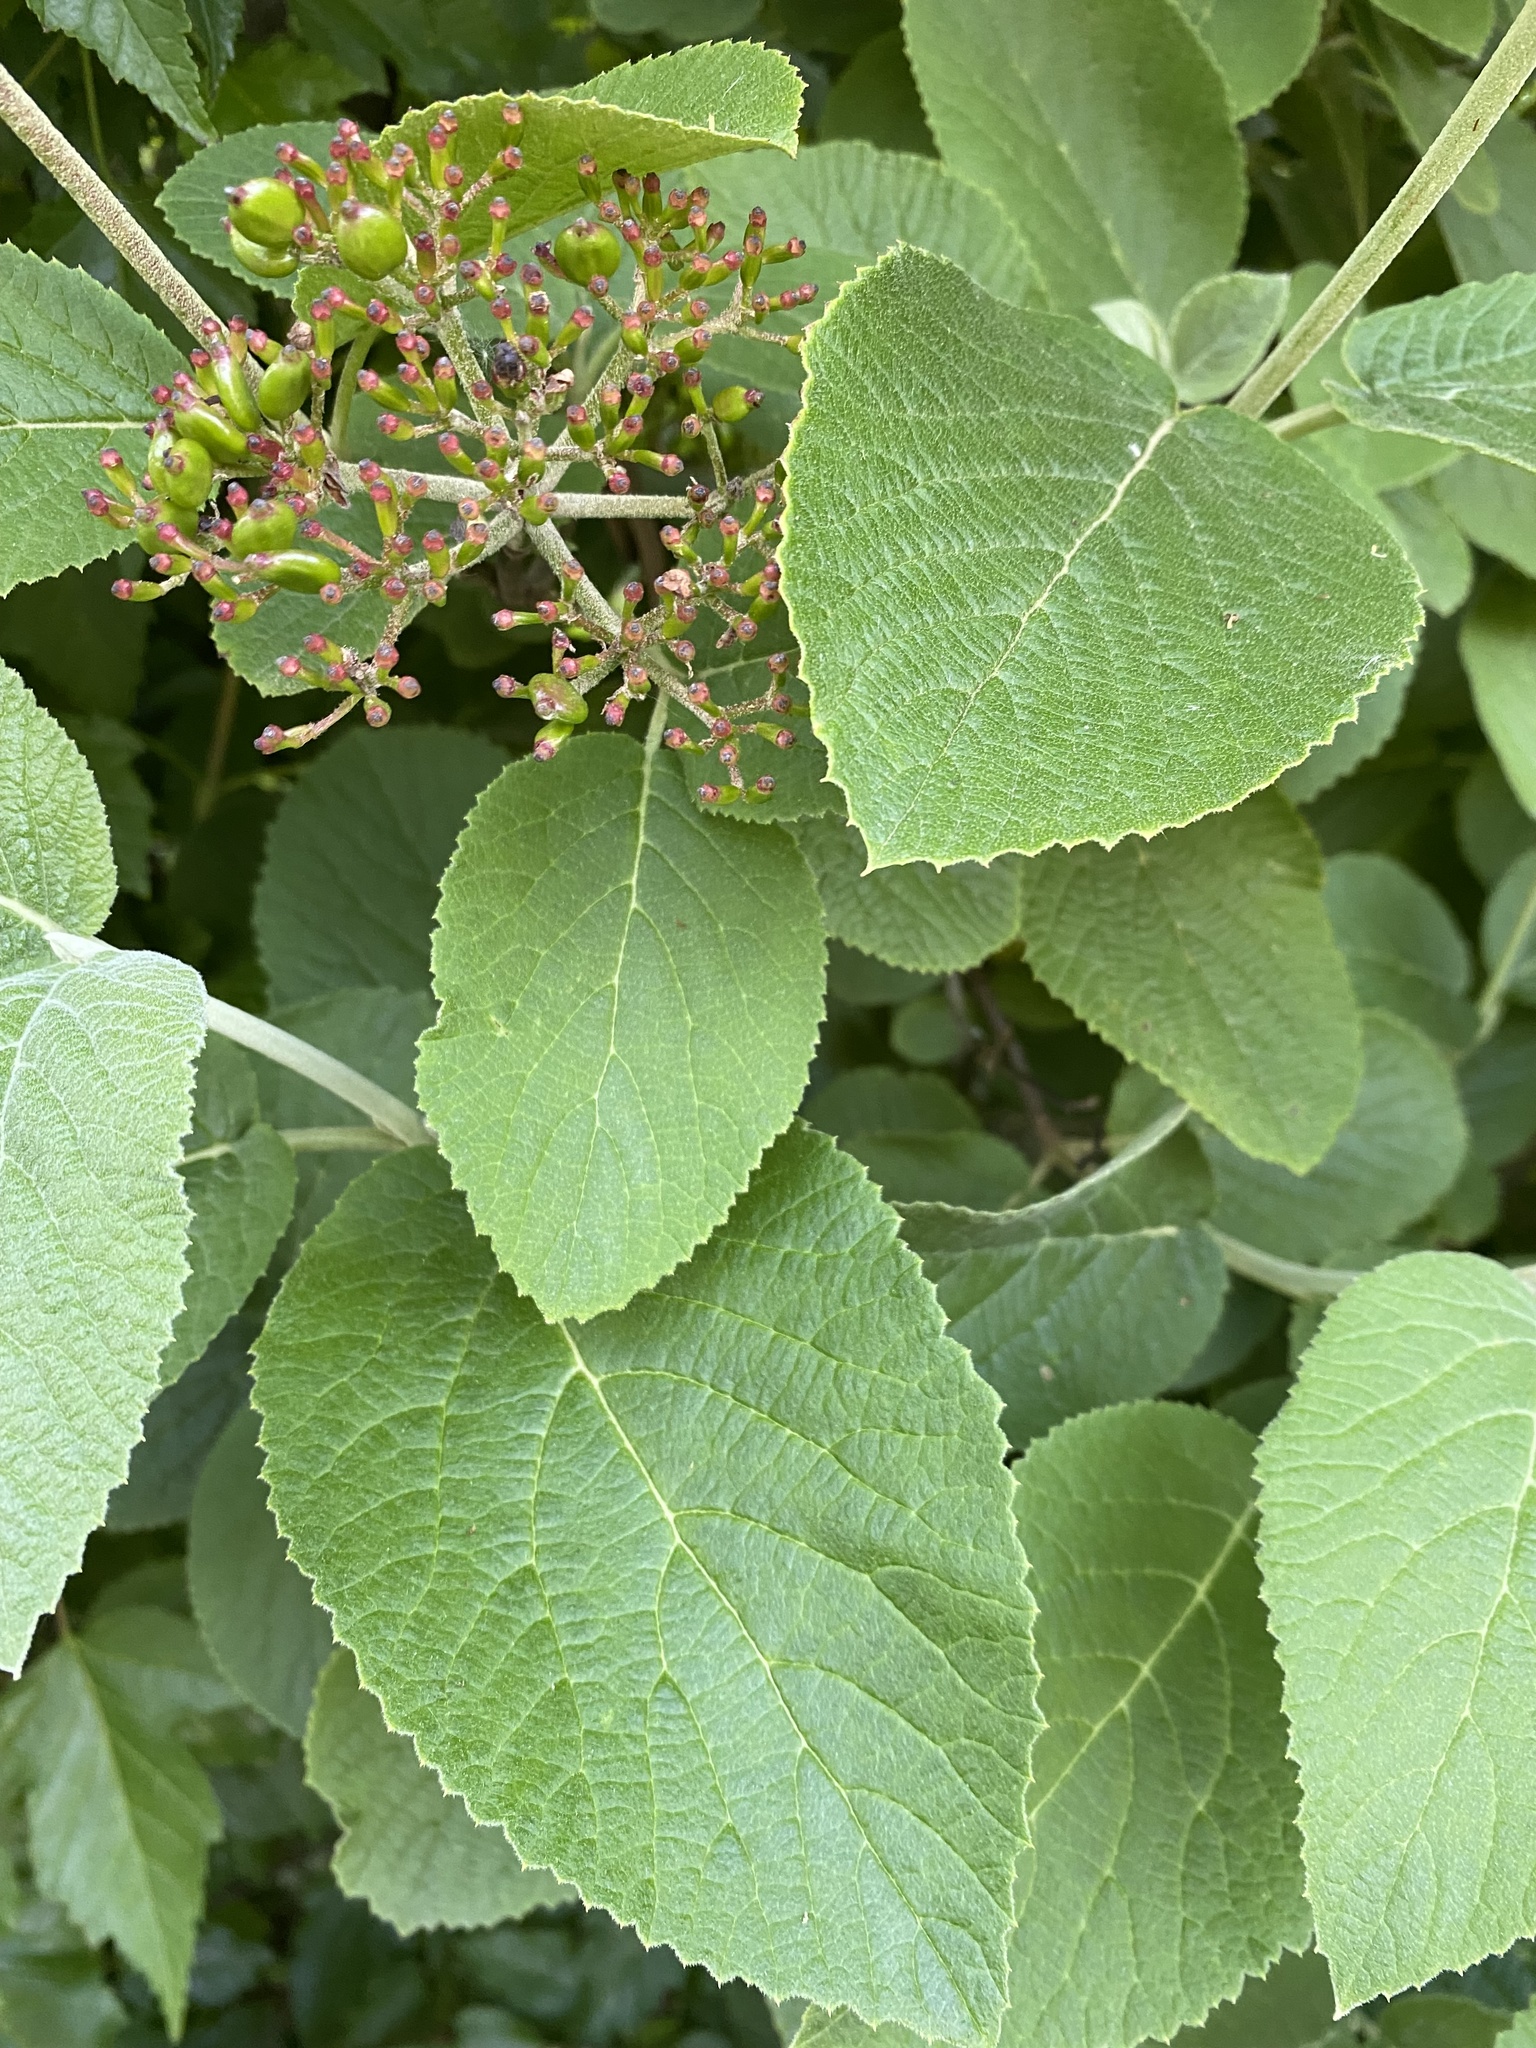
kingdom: Plantae
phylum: Tracheophyta
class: Magnoliopsida
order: Dipsacales
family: Viburnaceae
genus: Viburnum
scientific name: Viburnum lantana
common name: Wayfaring tree
